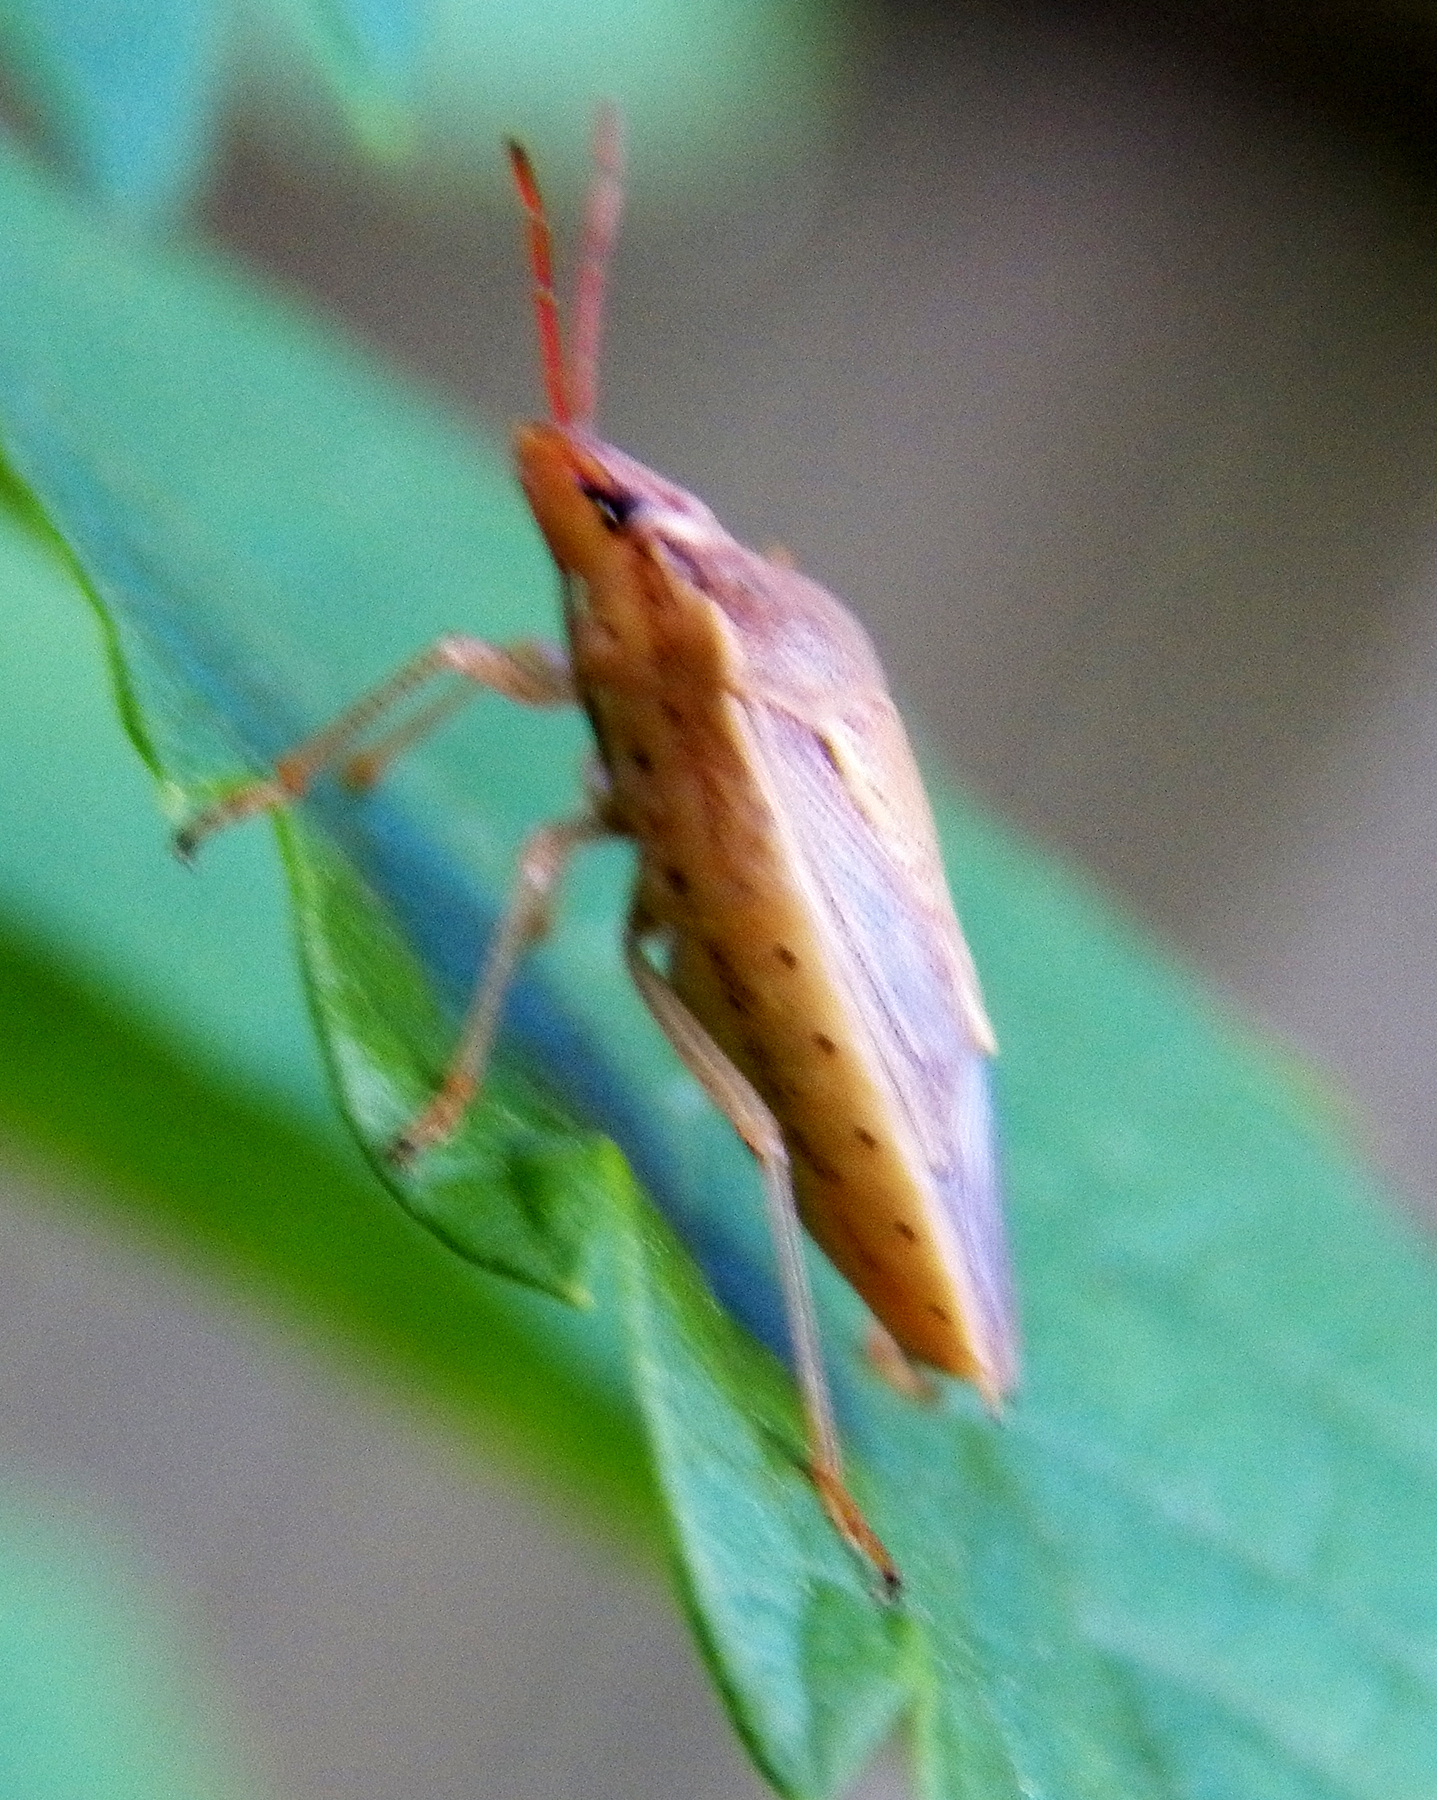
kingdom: Animalia
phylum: Arthropoda
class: Insecta
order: Hemiptera
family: Pentatomidae
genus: Oebalus
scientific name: Oebalus pugnax
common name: Rice stink bug
